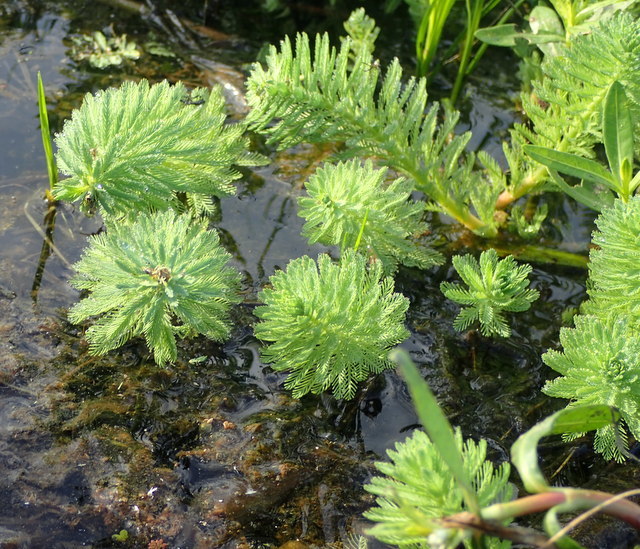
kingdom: Plantae
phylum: Tracheophyta
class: Magnoliopsida
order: Saxifragales
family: Haloragaceae
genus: Myriophyllum
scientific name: Myriophyllum aquaticum
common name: Parrot's feather
